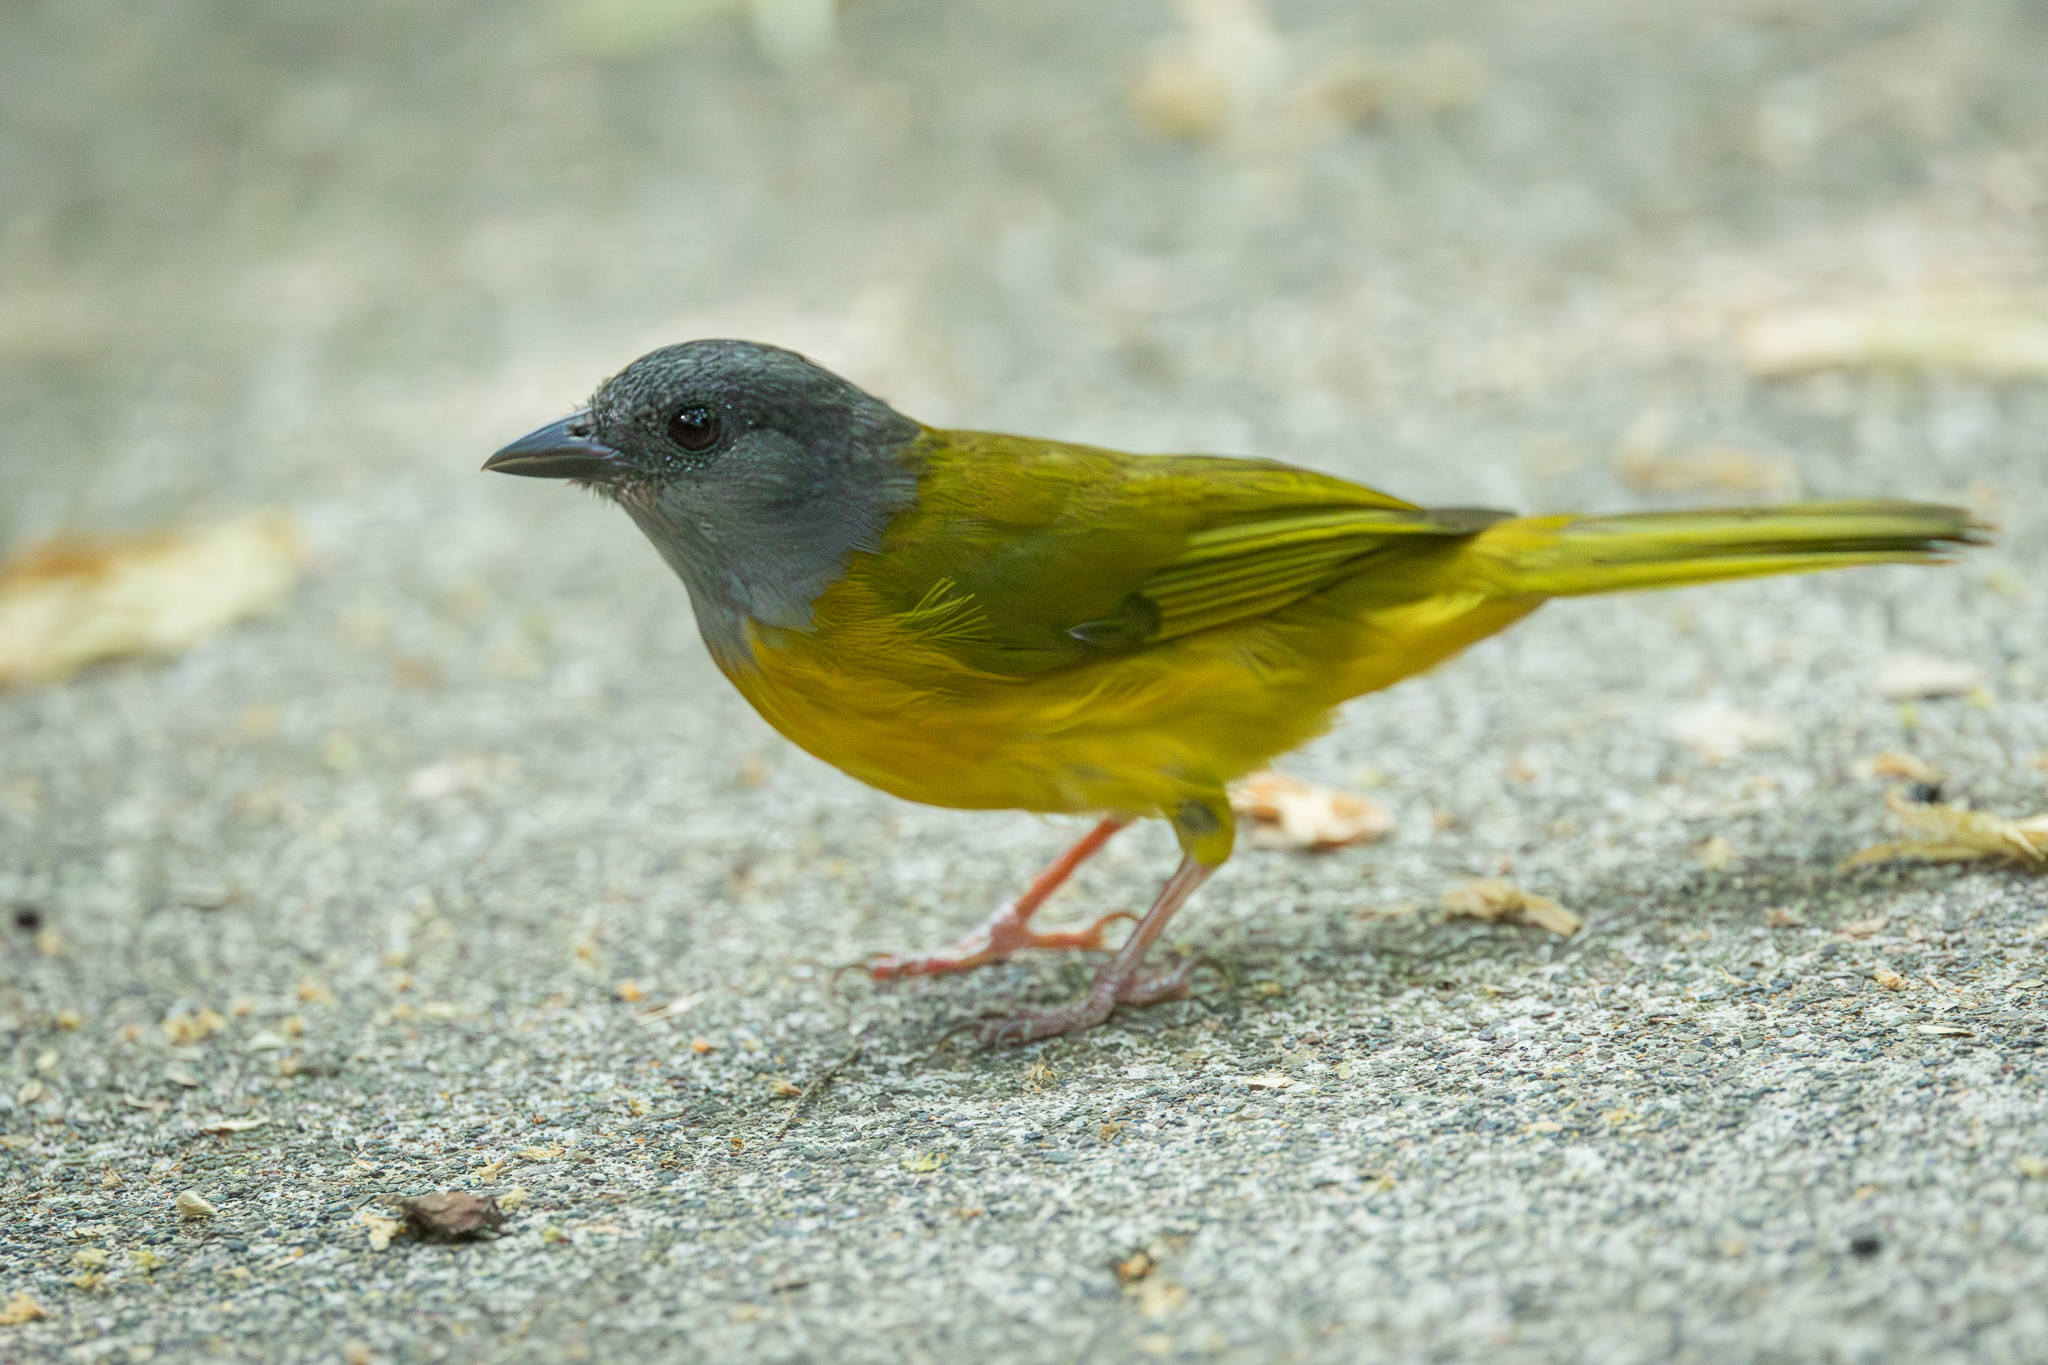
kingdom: Animalia
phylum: Chordata
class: Aves
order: Passeriformes
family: Thraupidae
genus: Eucometis
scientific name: Eucometis penicillata
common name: Grey-headed tanager
